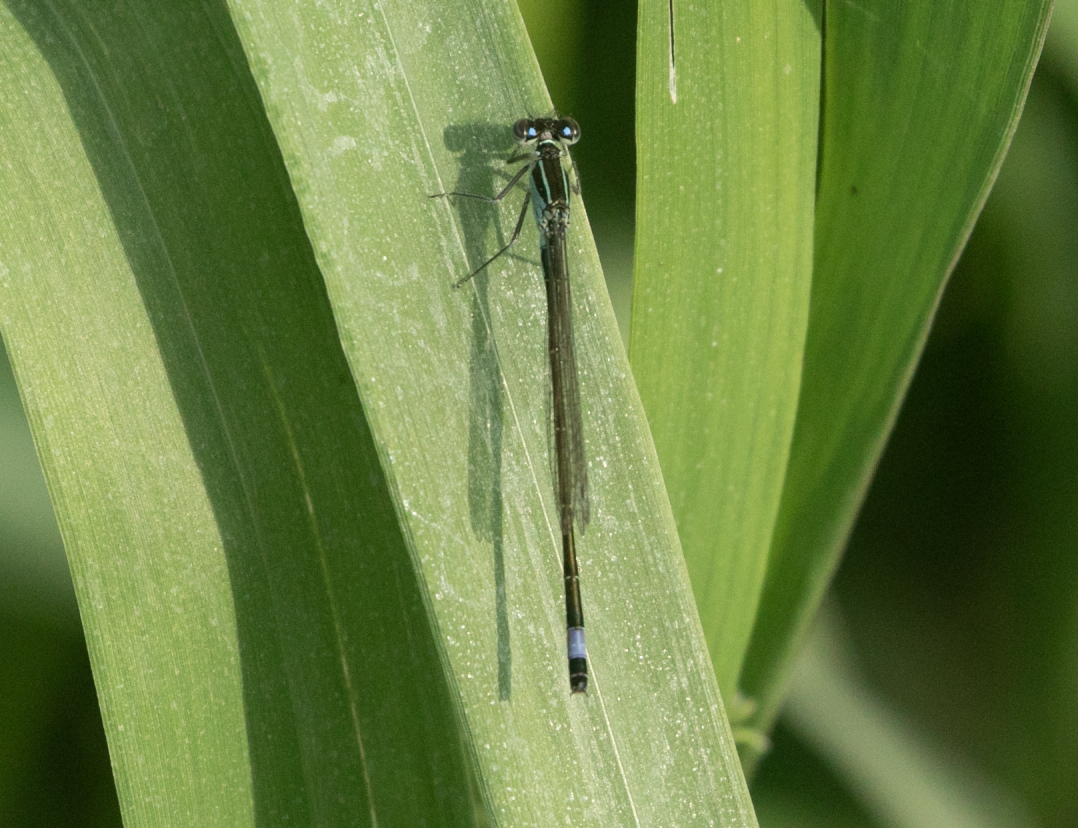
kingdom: Animalia
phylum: Arthropoda
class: Insecta
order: Odonata
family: Coenagrionidae
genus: Ischnura
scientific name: Ischnura elegans
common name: Blue-tailed damselfly
